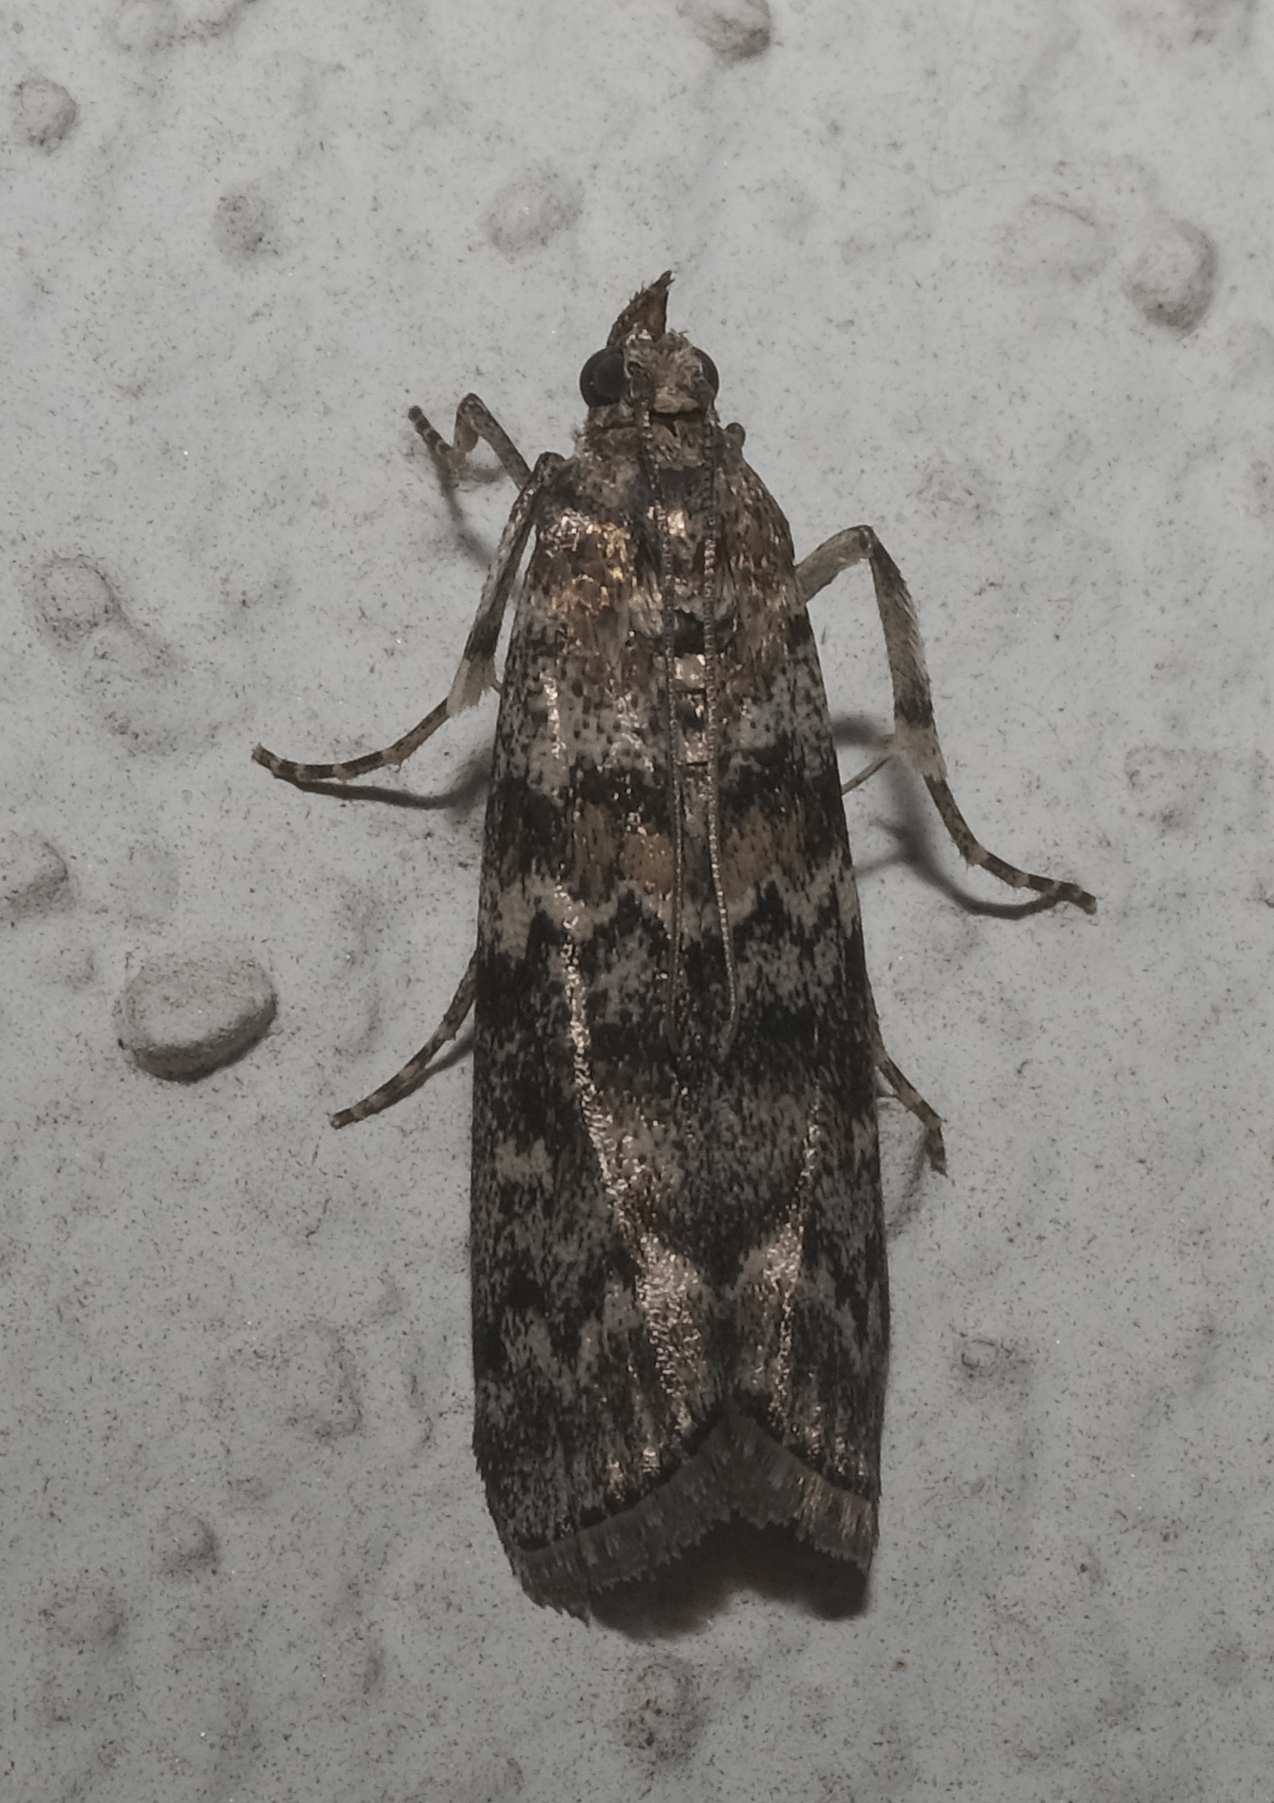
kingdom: Animalia
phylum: Arthropoda
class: Insecta
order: Lepidoptera
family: Pyralidae
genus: Dioryctria
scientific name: Dioryctria abietella
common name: Dark pine knot-horn
